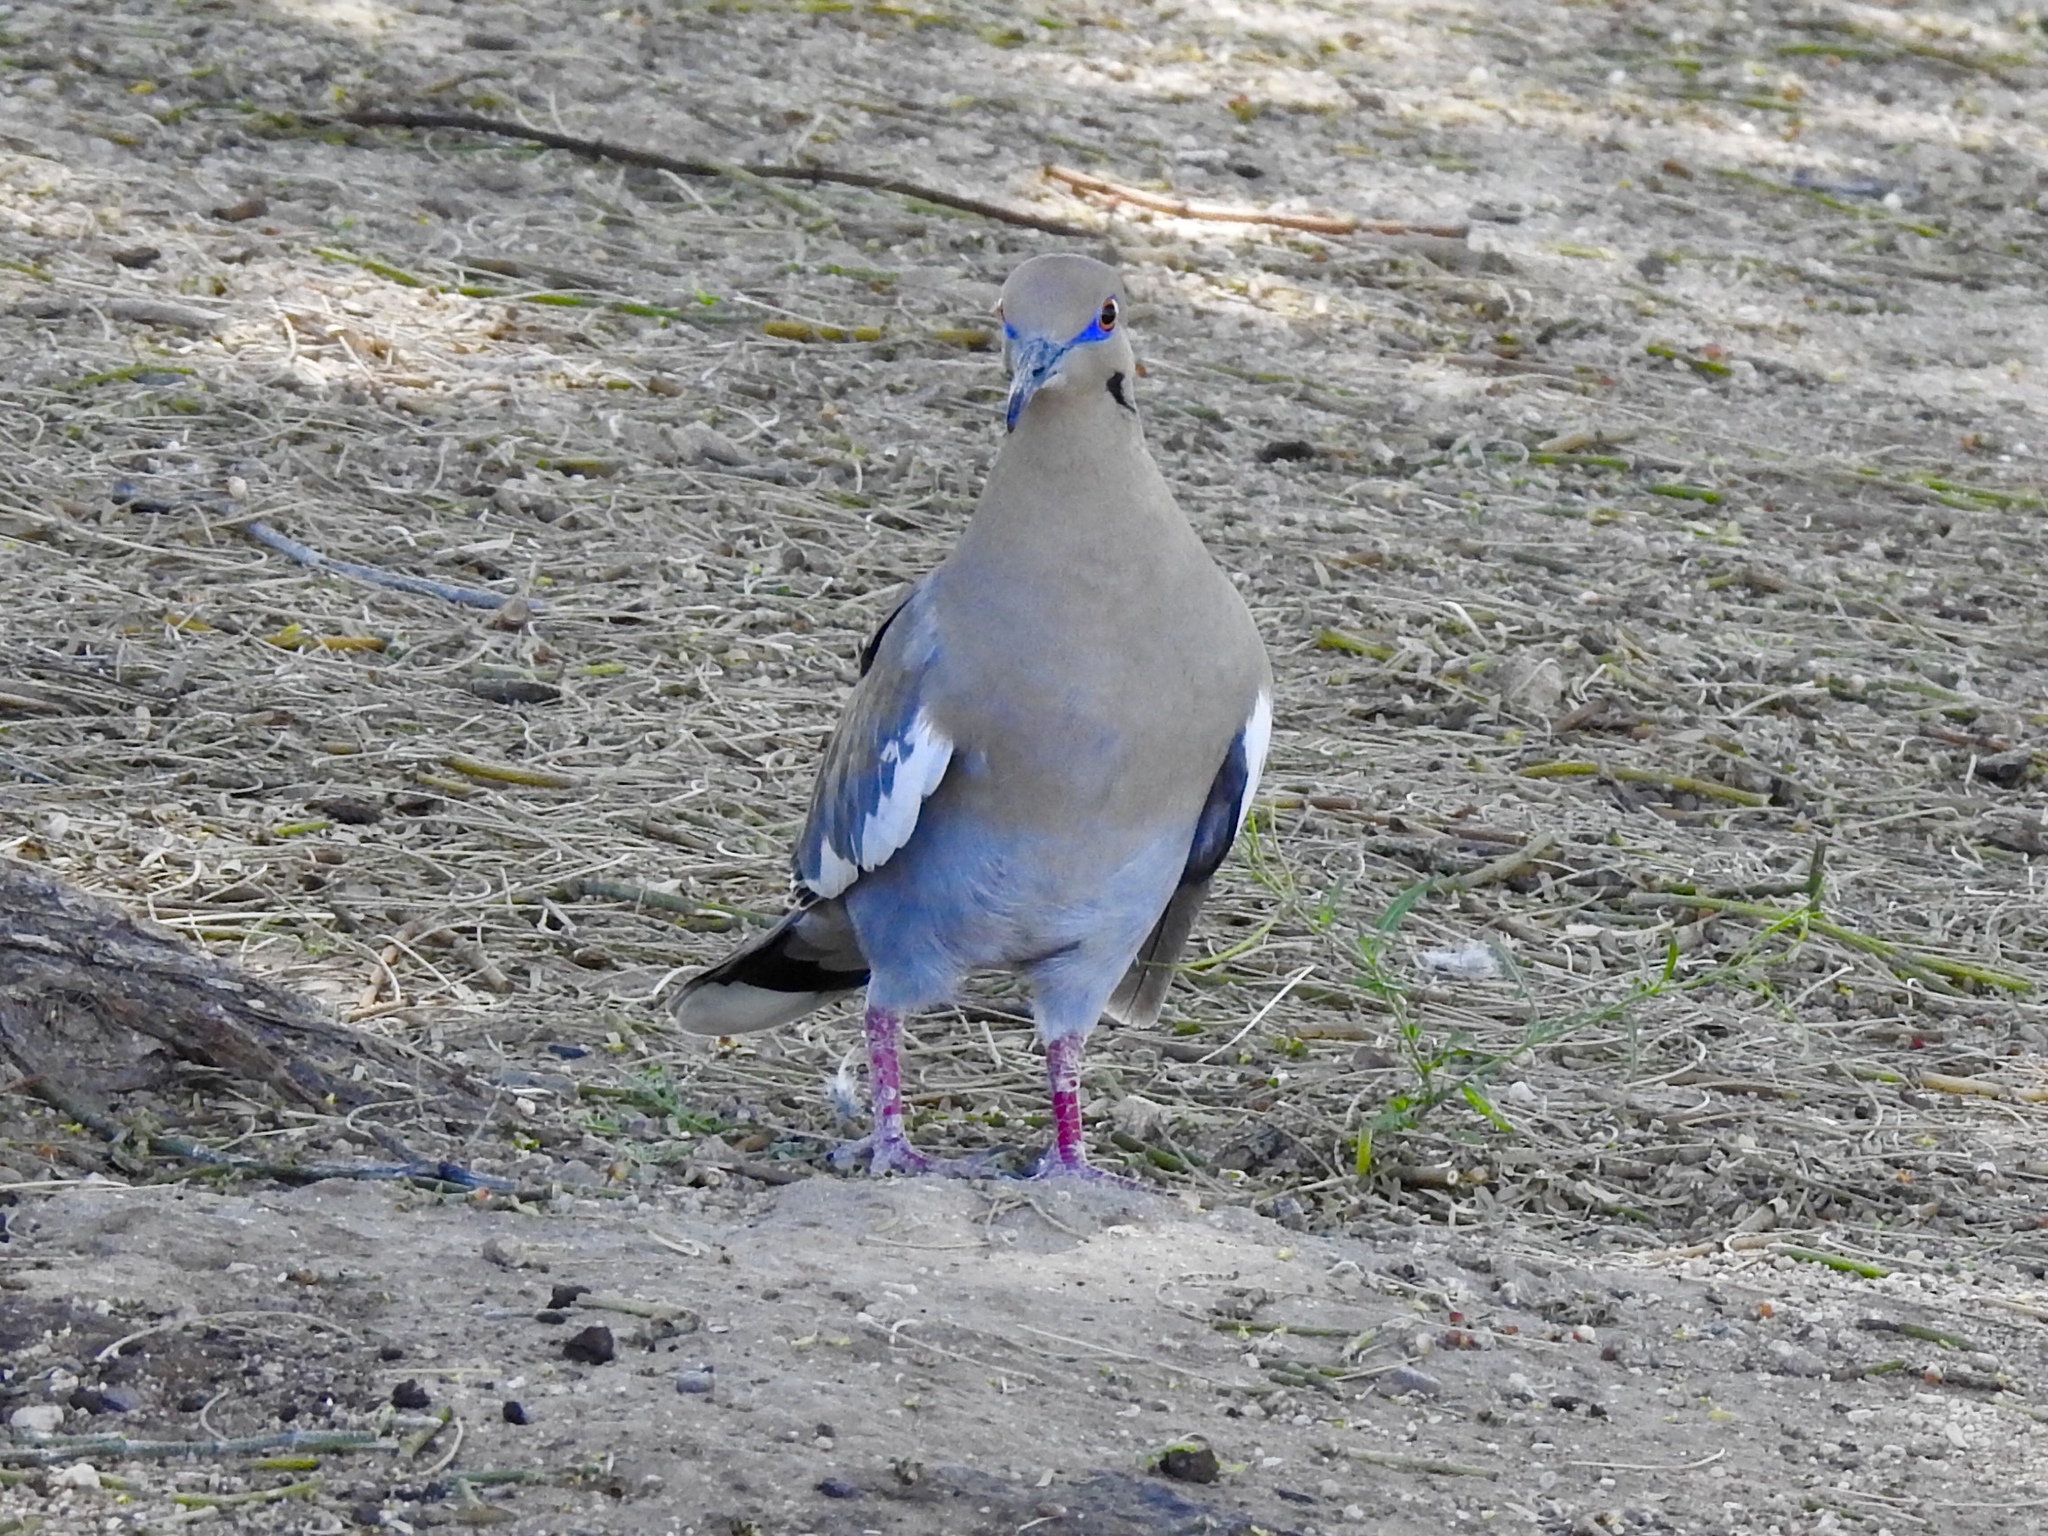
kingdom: Animalia
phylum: Chordata
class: Aves
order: Columbiformes
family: Columbidae
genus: Zenaida
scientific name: Zenaida asiatica
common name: White-winged dove
